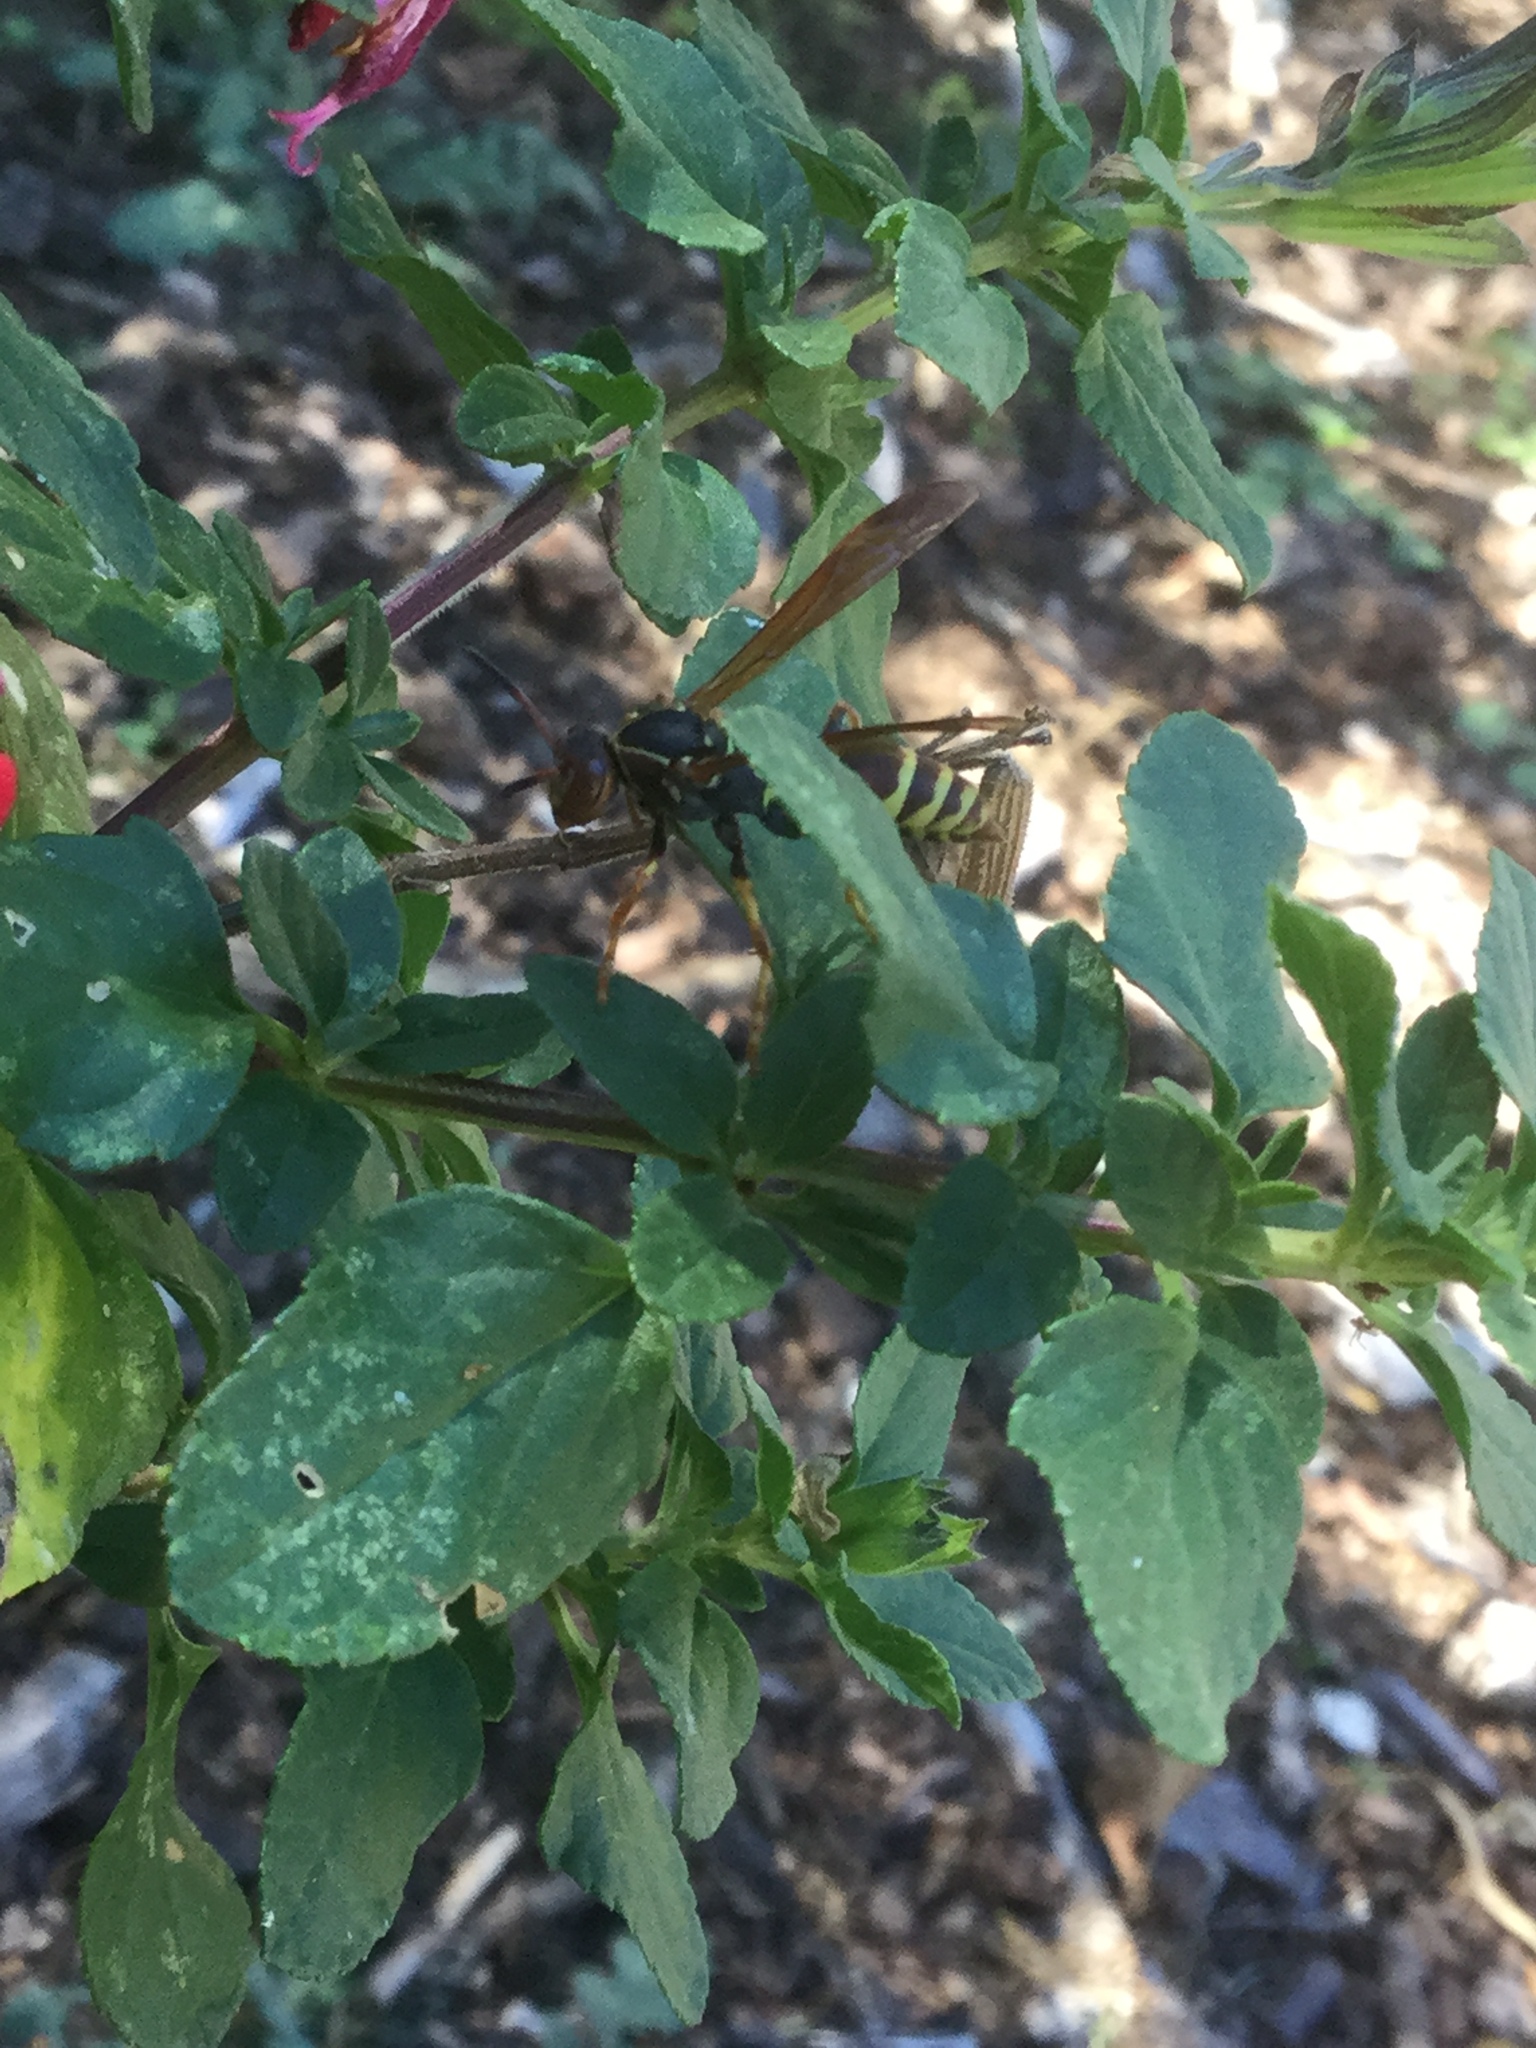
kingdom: Animalia
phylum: Arthropoda
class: Insecta
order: Hymenoptera
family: Eumenidae
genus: Polistes
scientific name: Polistes dorsalis
